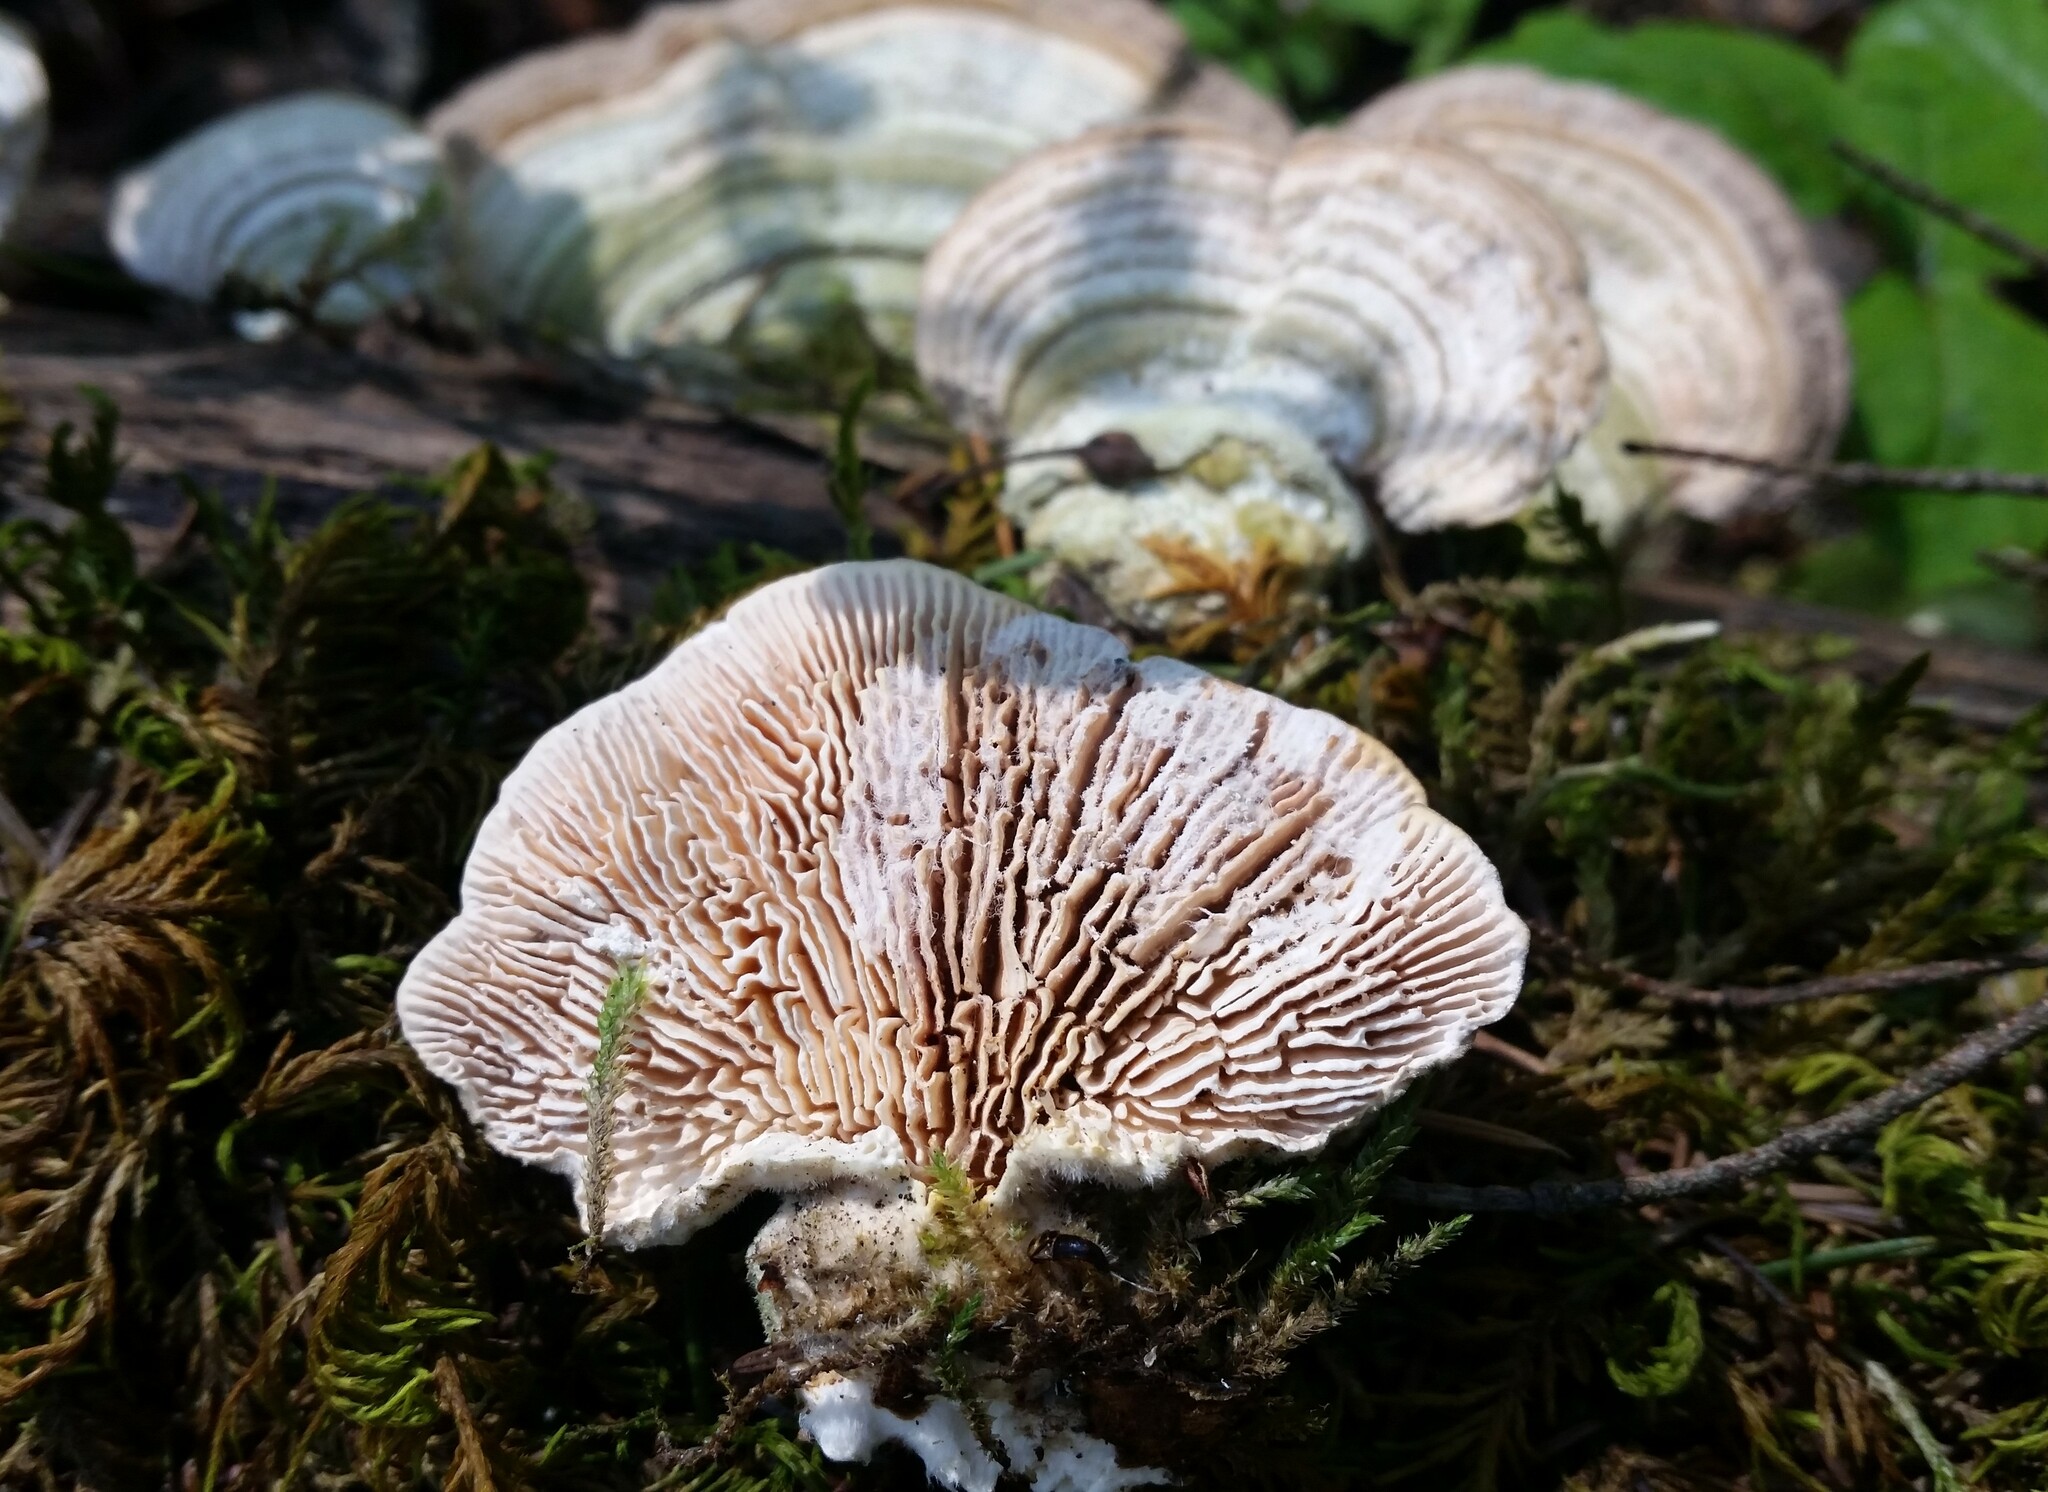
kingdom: Fungi
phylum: Basidiomycota
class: Agaricomycetes
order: Polyporales
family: Polyporaceae
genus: Lenzites
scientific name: Lenzites betulinus
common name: Birch mazegill
